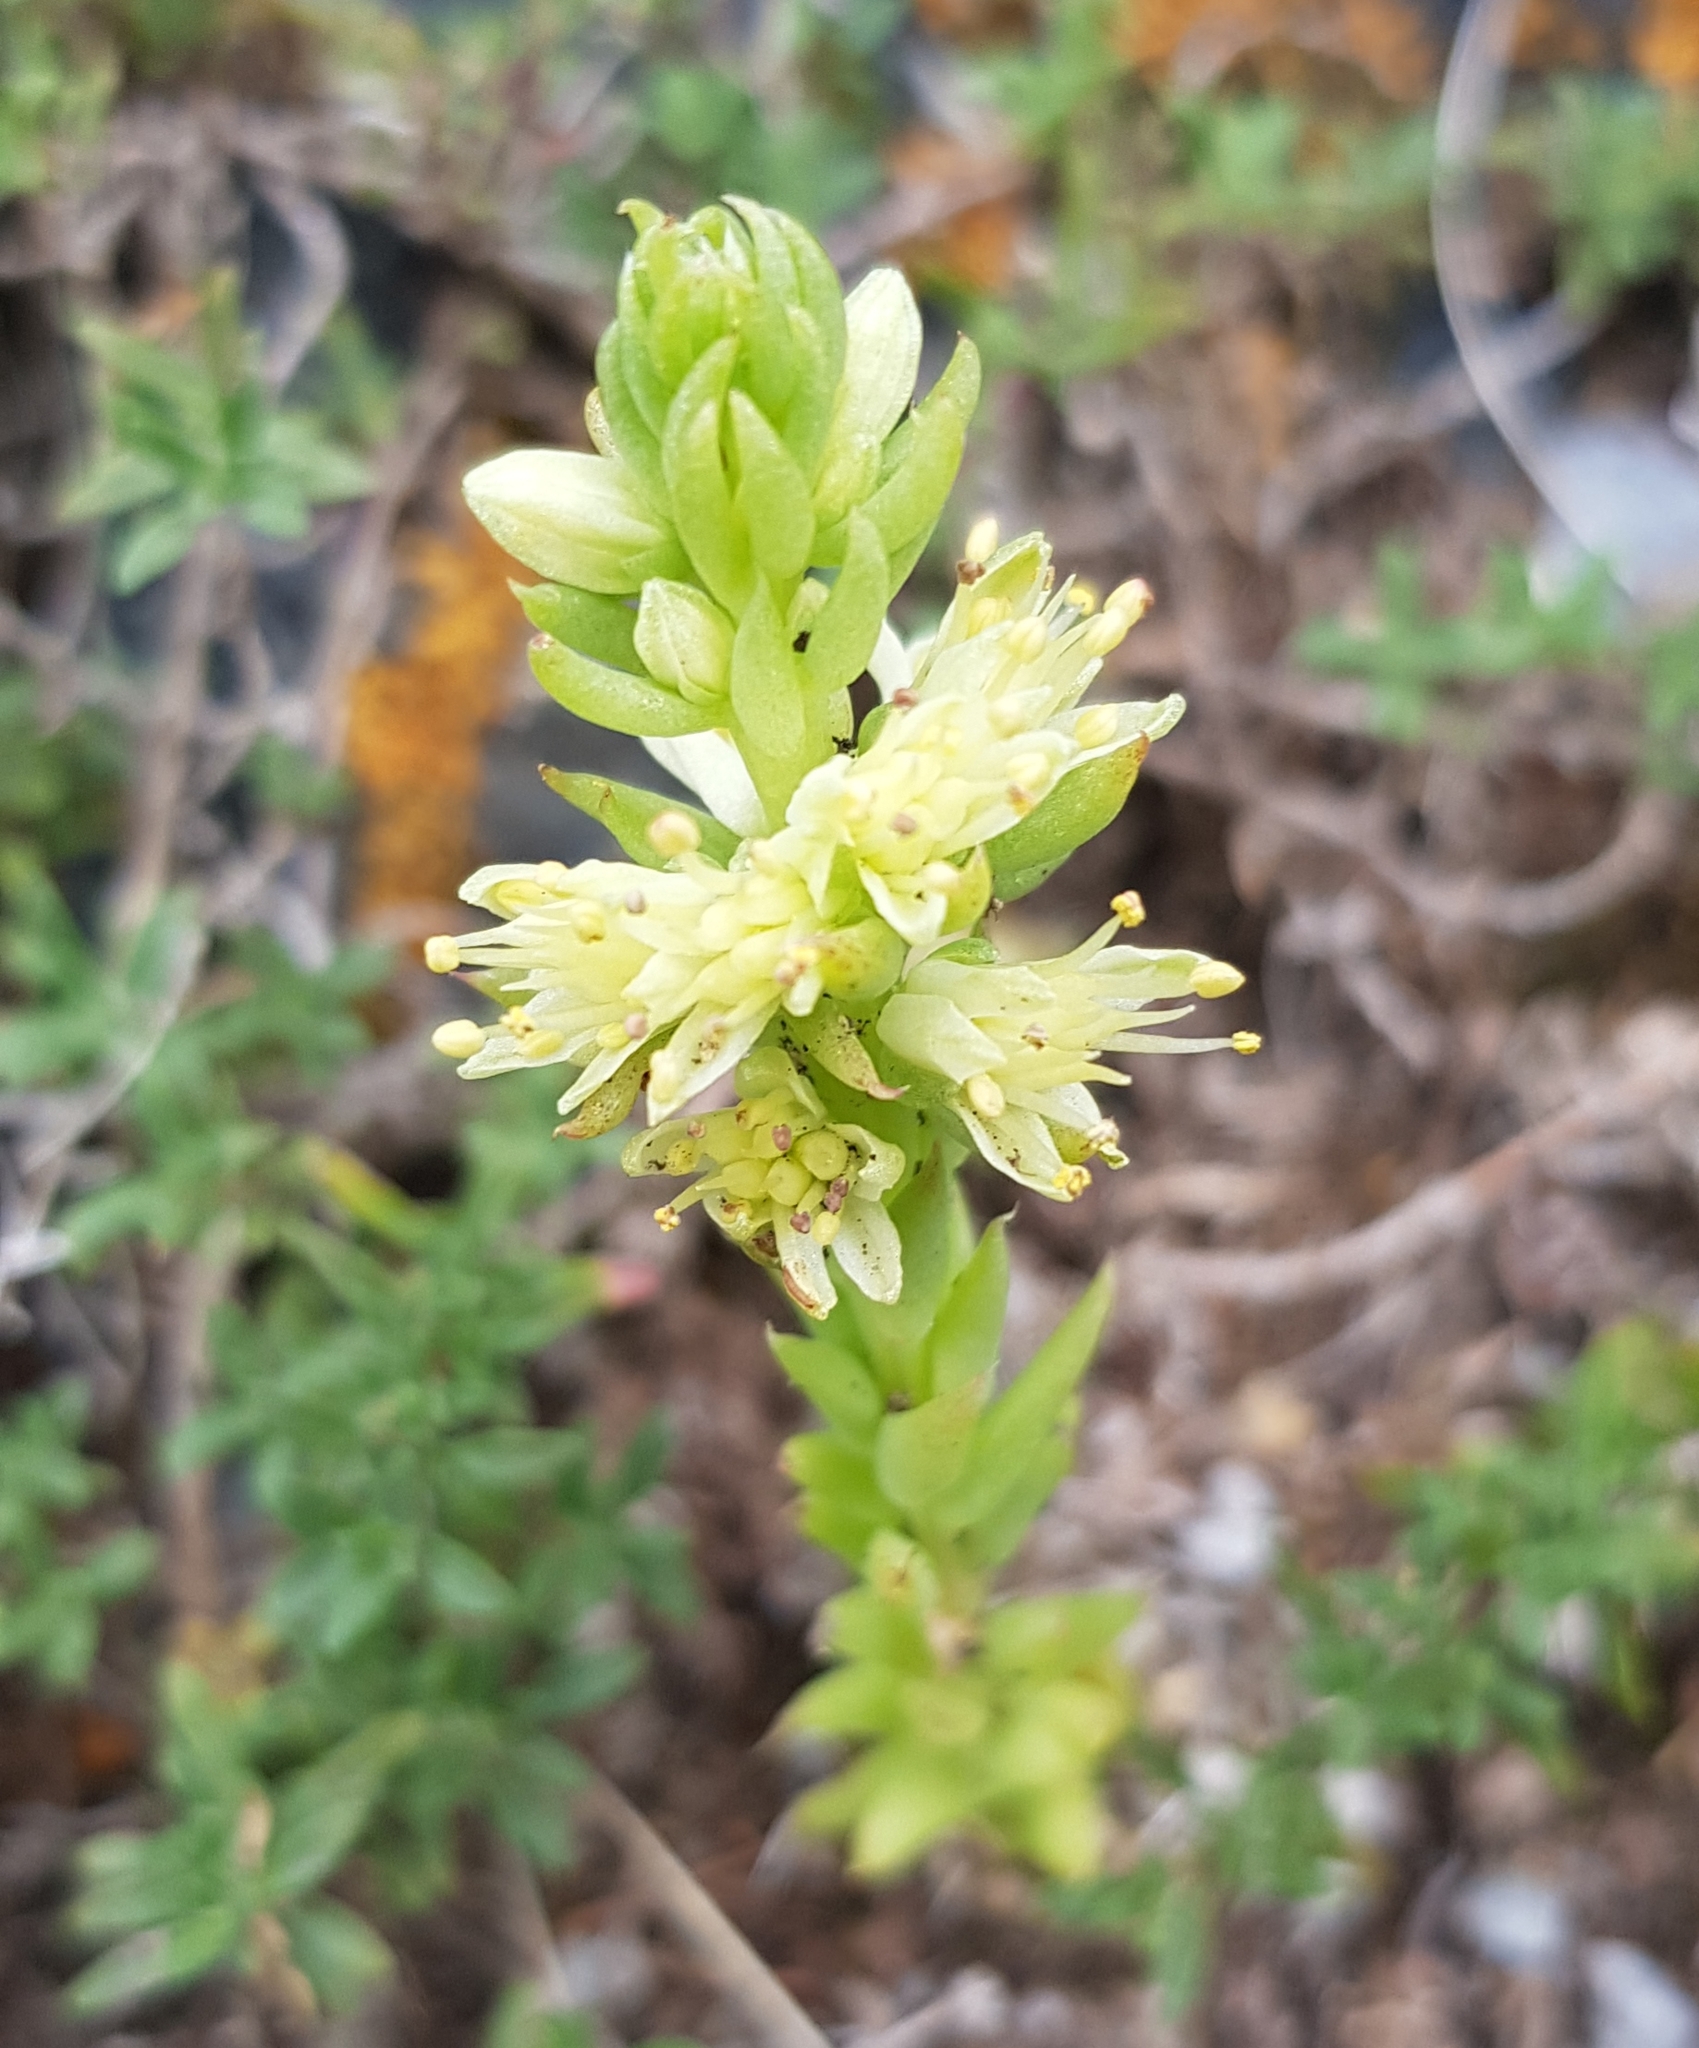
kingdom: Plantae
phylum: Tracheophyta
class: Magnoliopsida
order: Saxifragales
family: Crassulaceae
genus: Orostachys
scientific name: Orostachys spinosa
